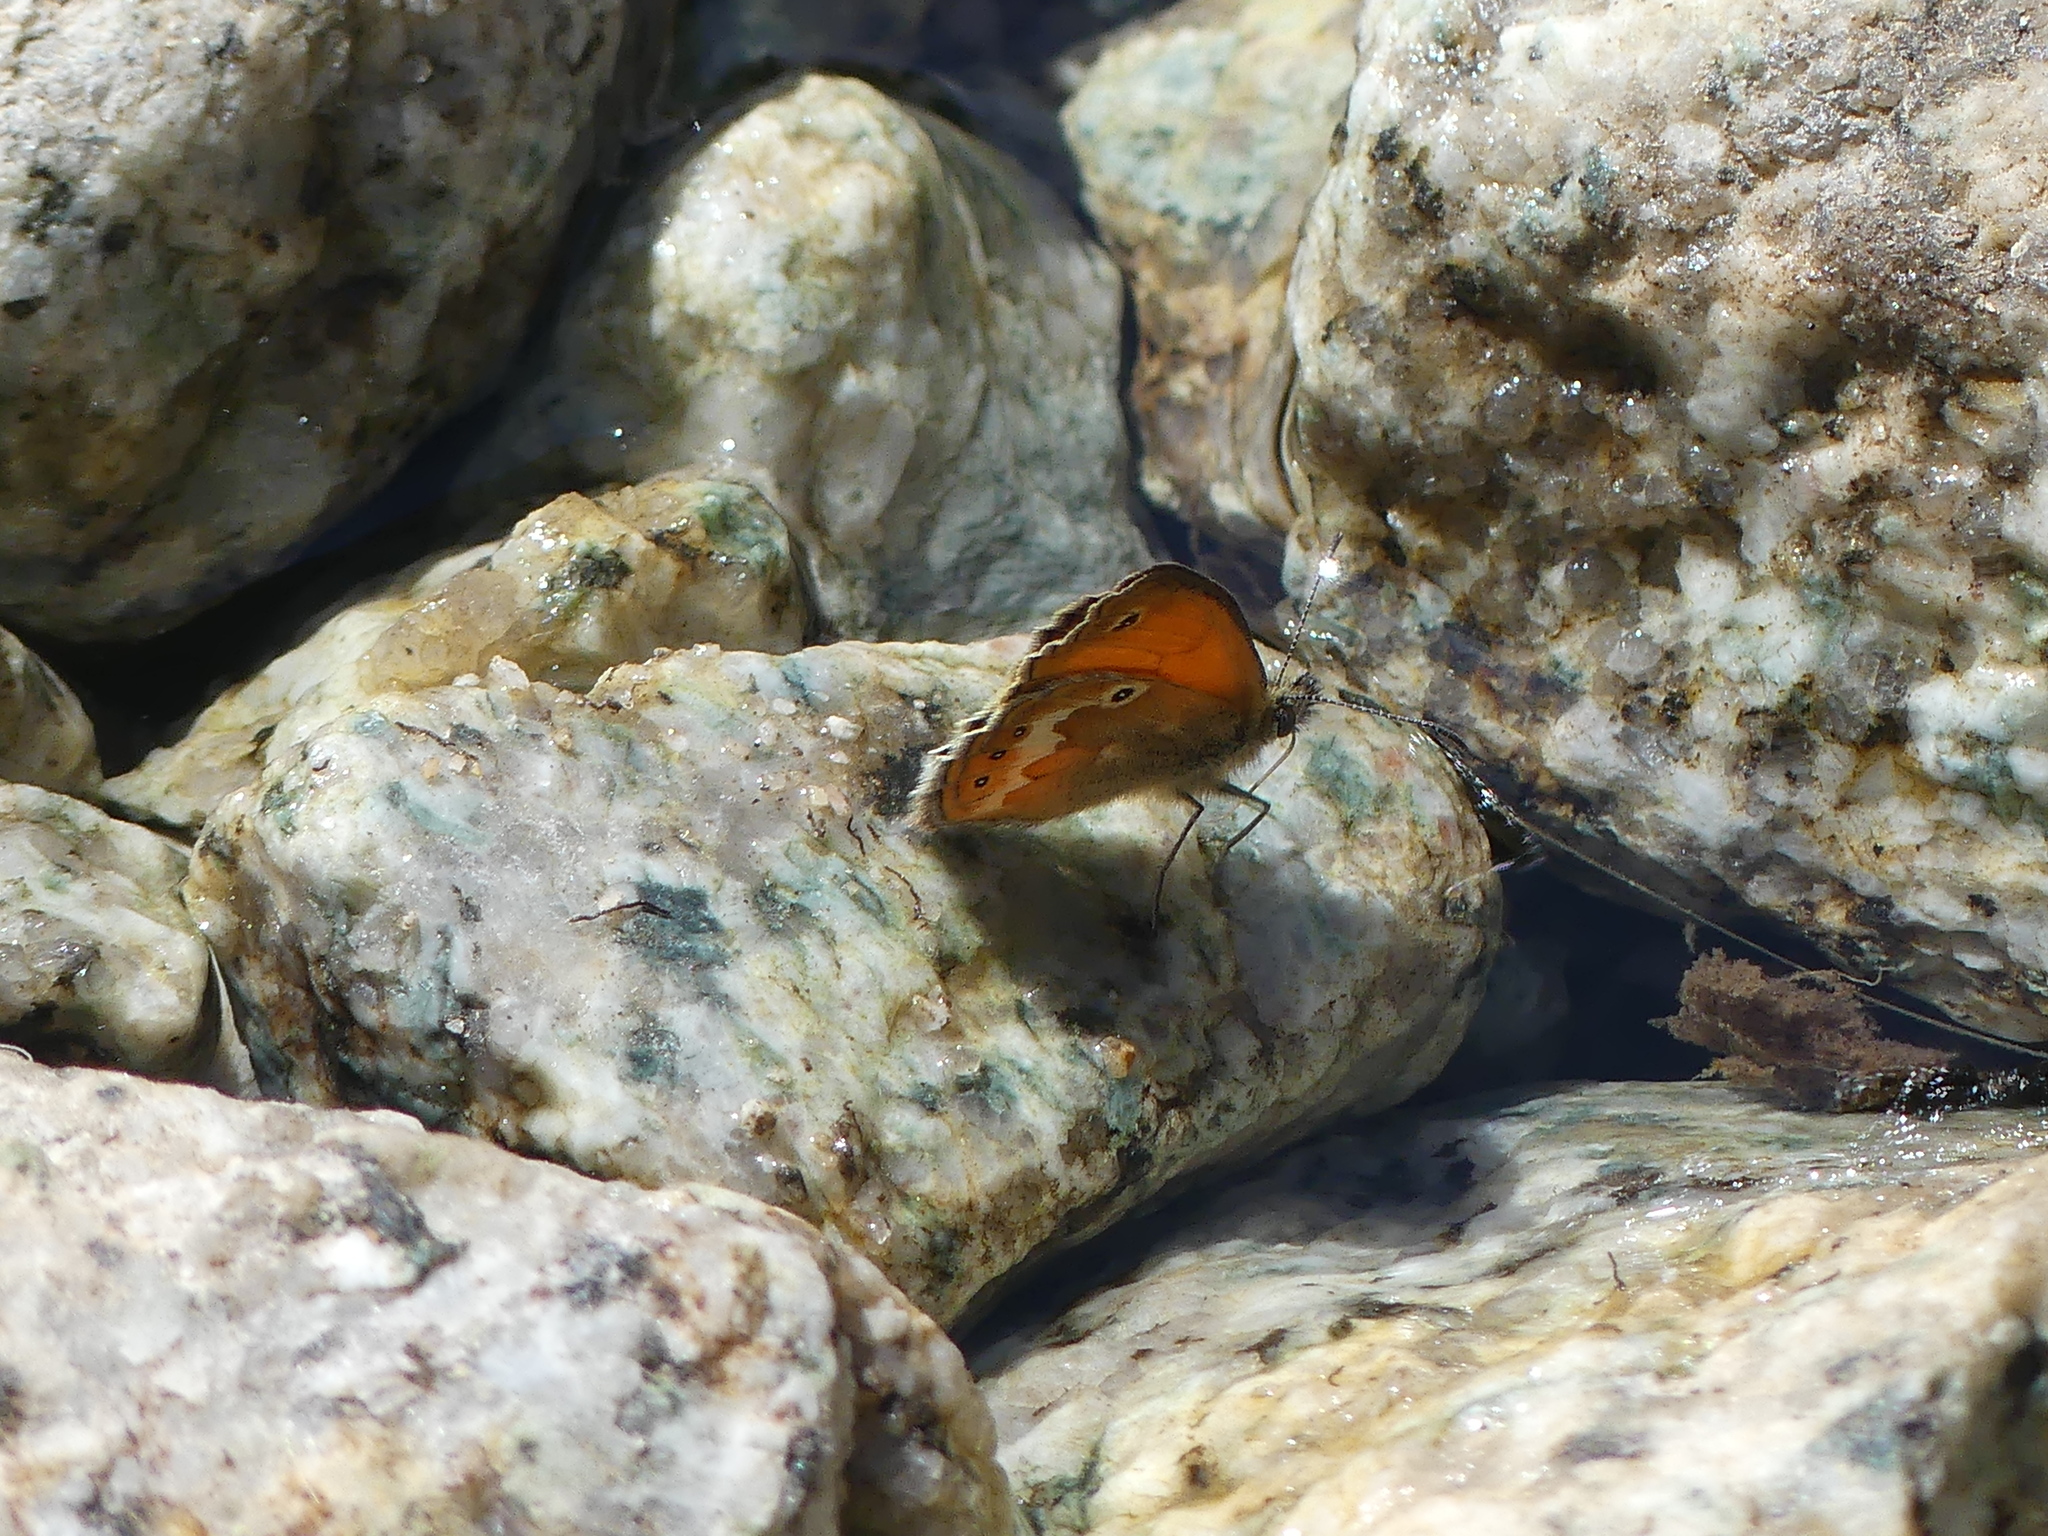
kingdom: Animalia
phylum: Arthropoda
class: Insecta
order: Lepidoptera
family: Nymphalidae
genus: Coenonympha
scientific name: Coenonympha corinna
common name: Corsican heath
